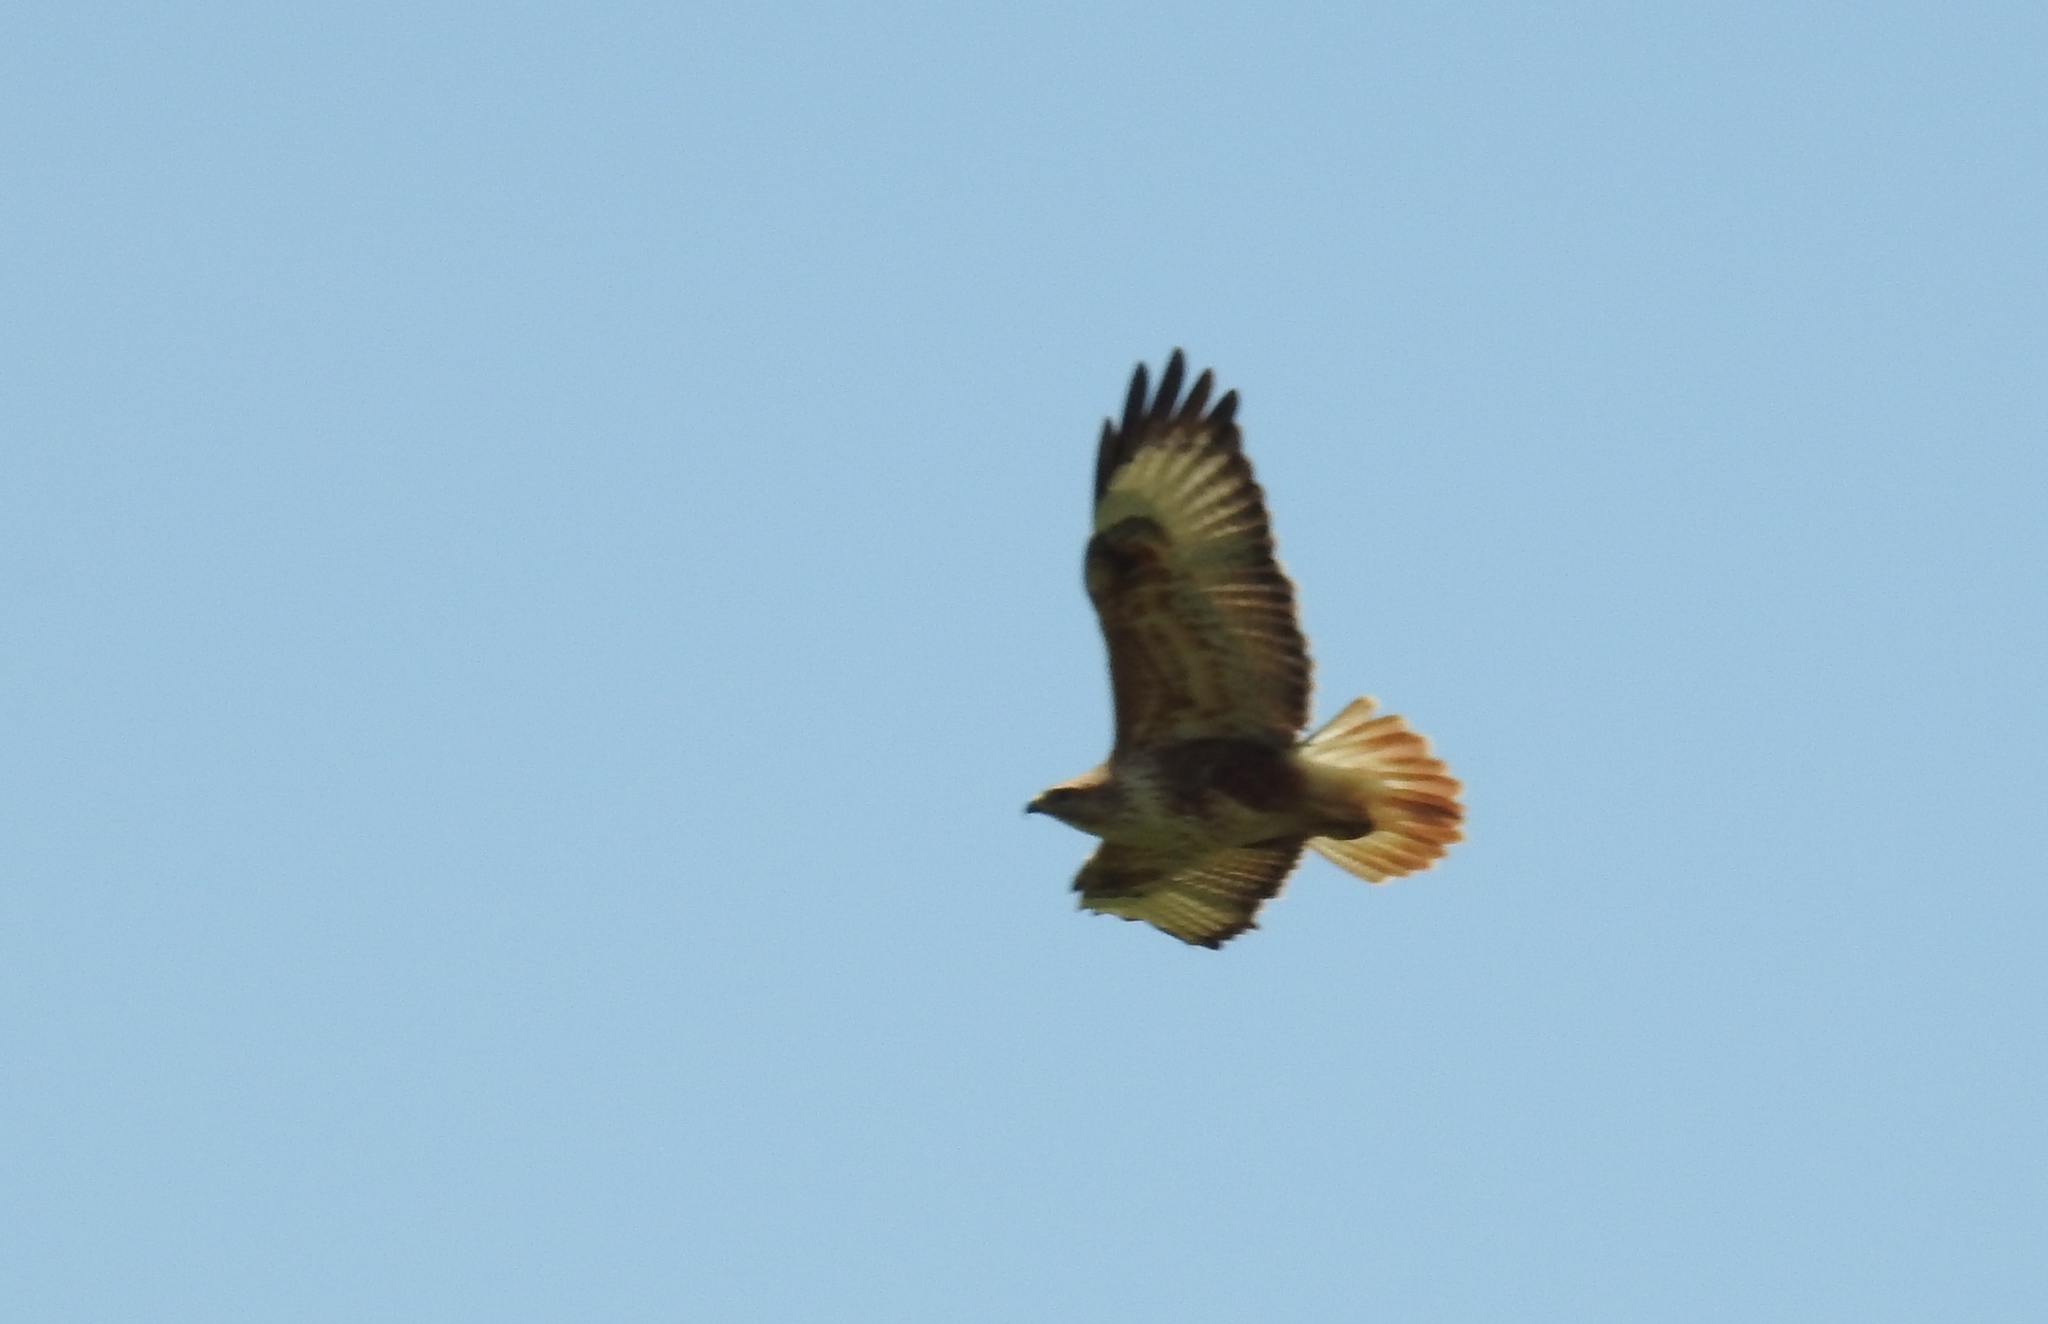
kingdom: Animalia
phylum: Chordata
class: Aves
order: Accipitriformes
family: Accipitridae
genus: Buteo
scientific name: Buteo rufinus
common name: Long-legged buzzard
